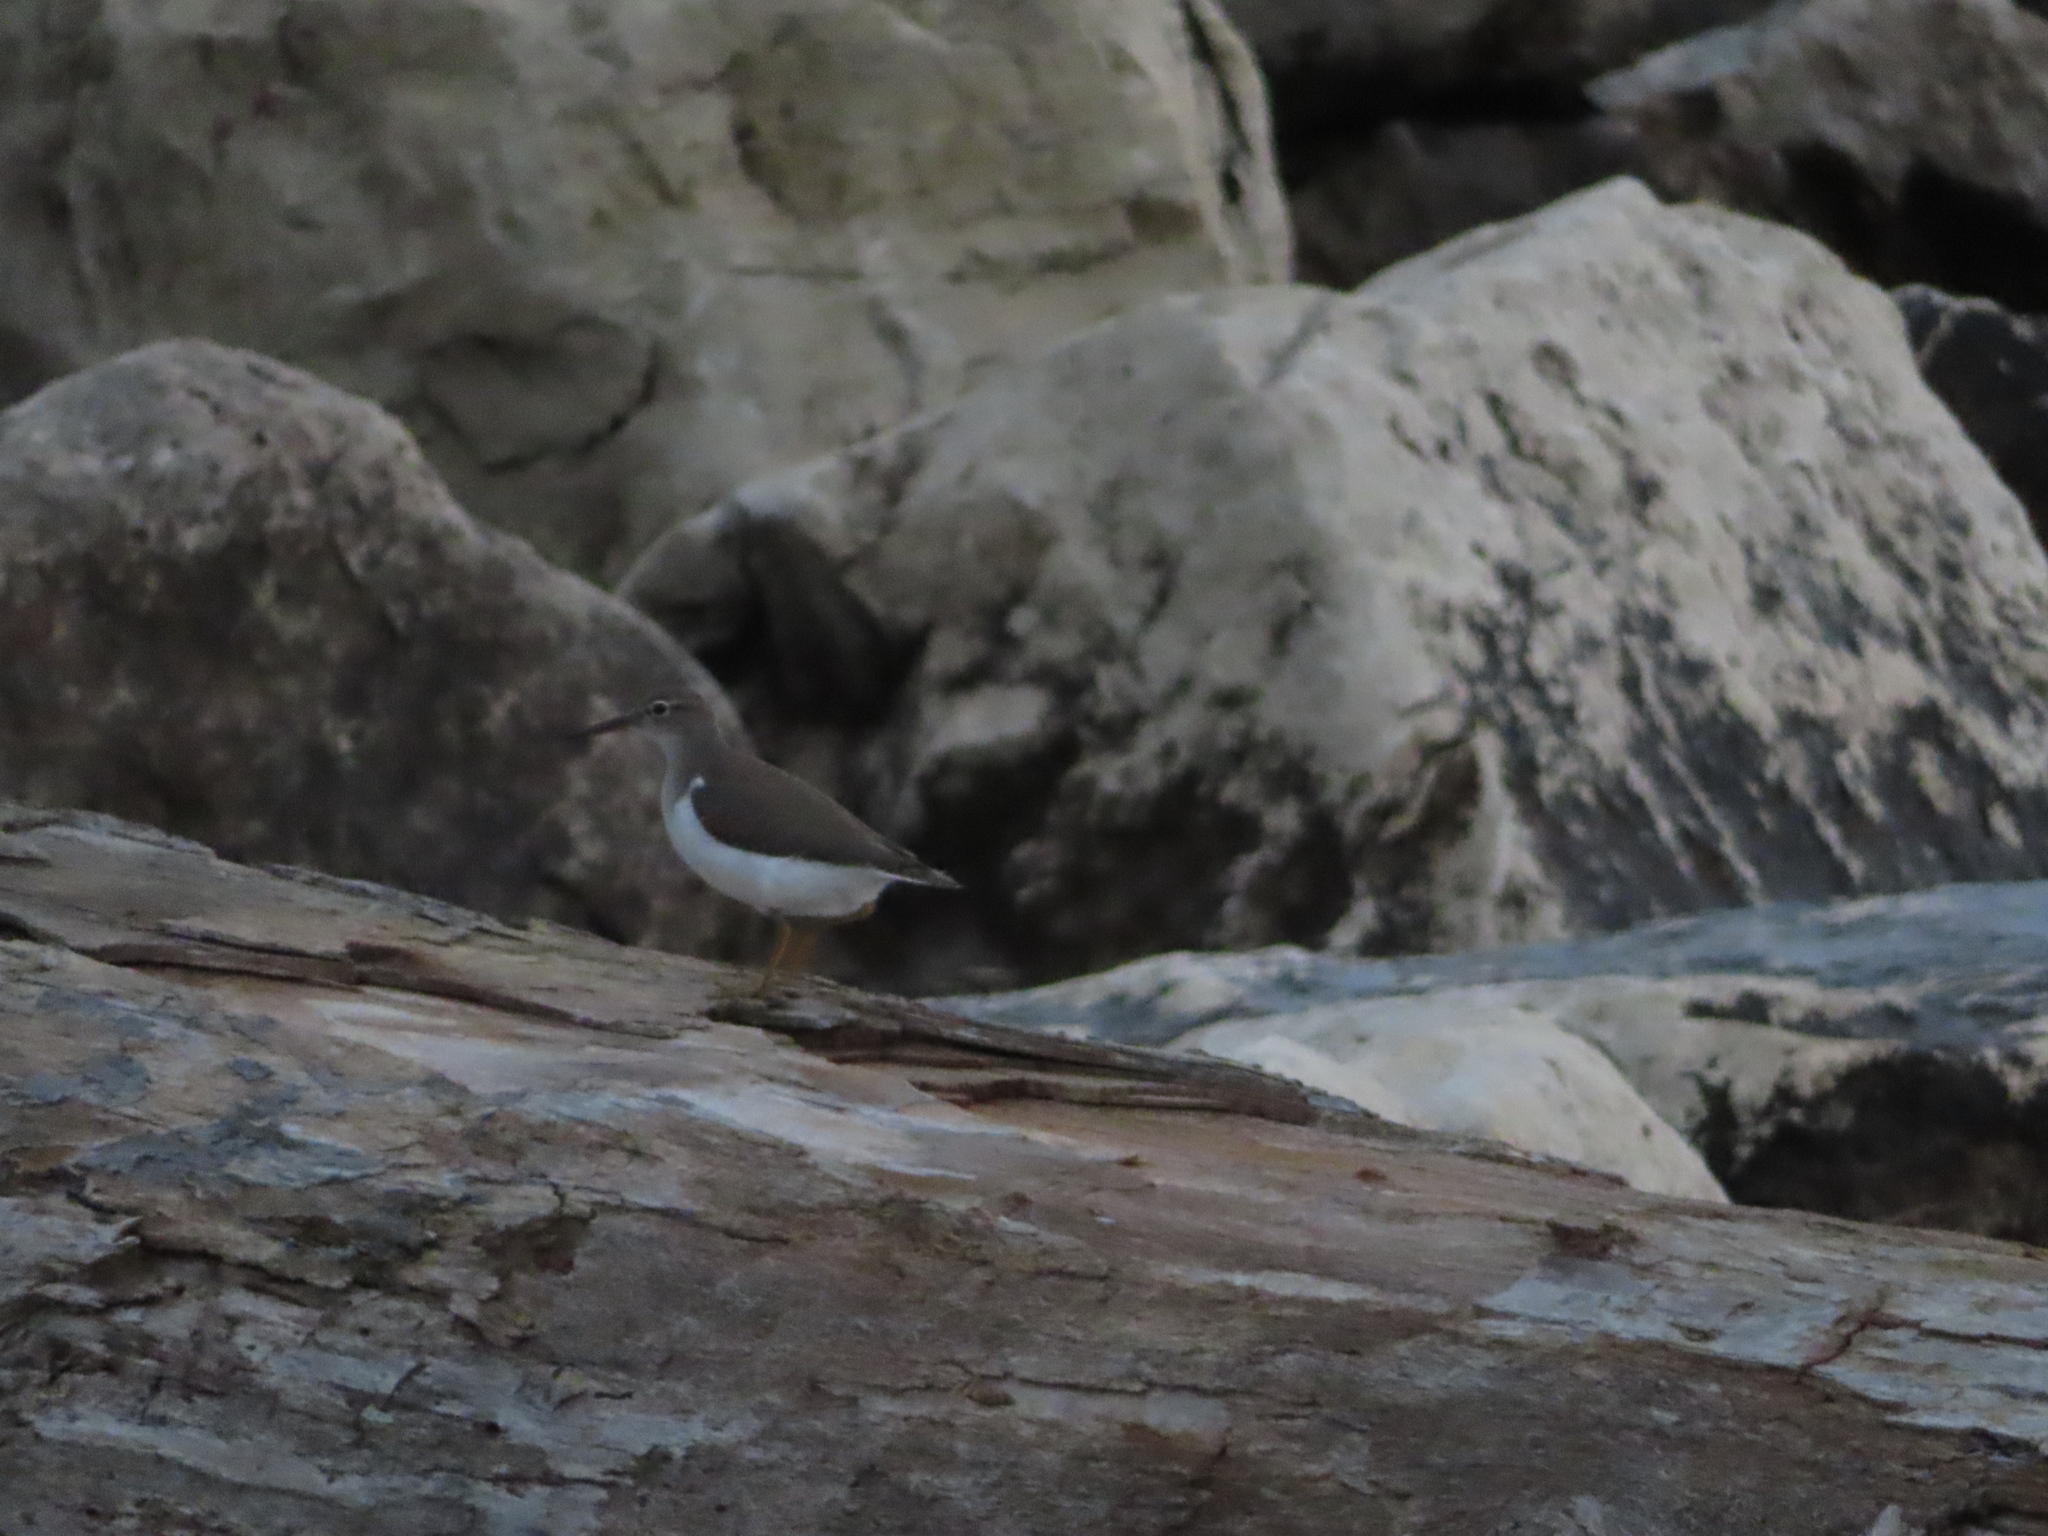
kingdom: Animalia
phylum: Chordata
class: Aves
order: Charadriiformes
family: Scolopacidae
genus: Actitis
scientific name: Actitis macularius
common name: Spotted sandpiper
